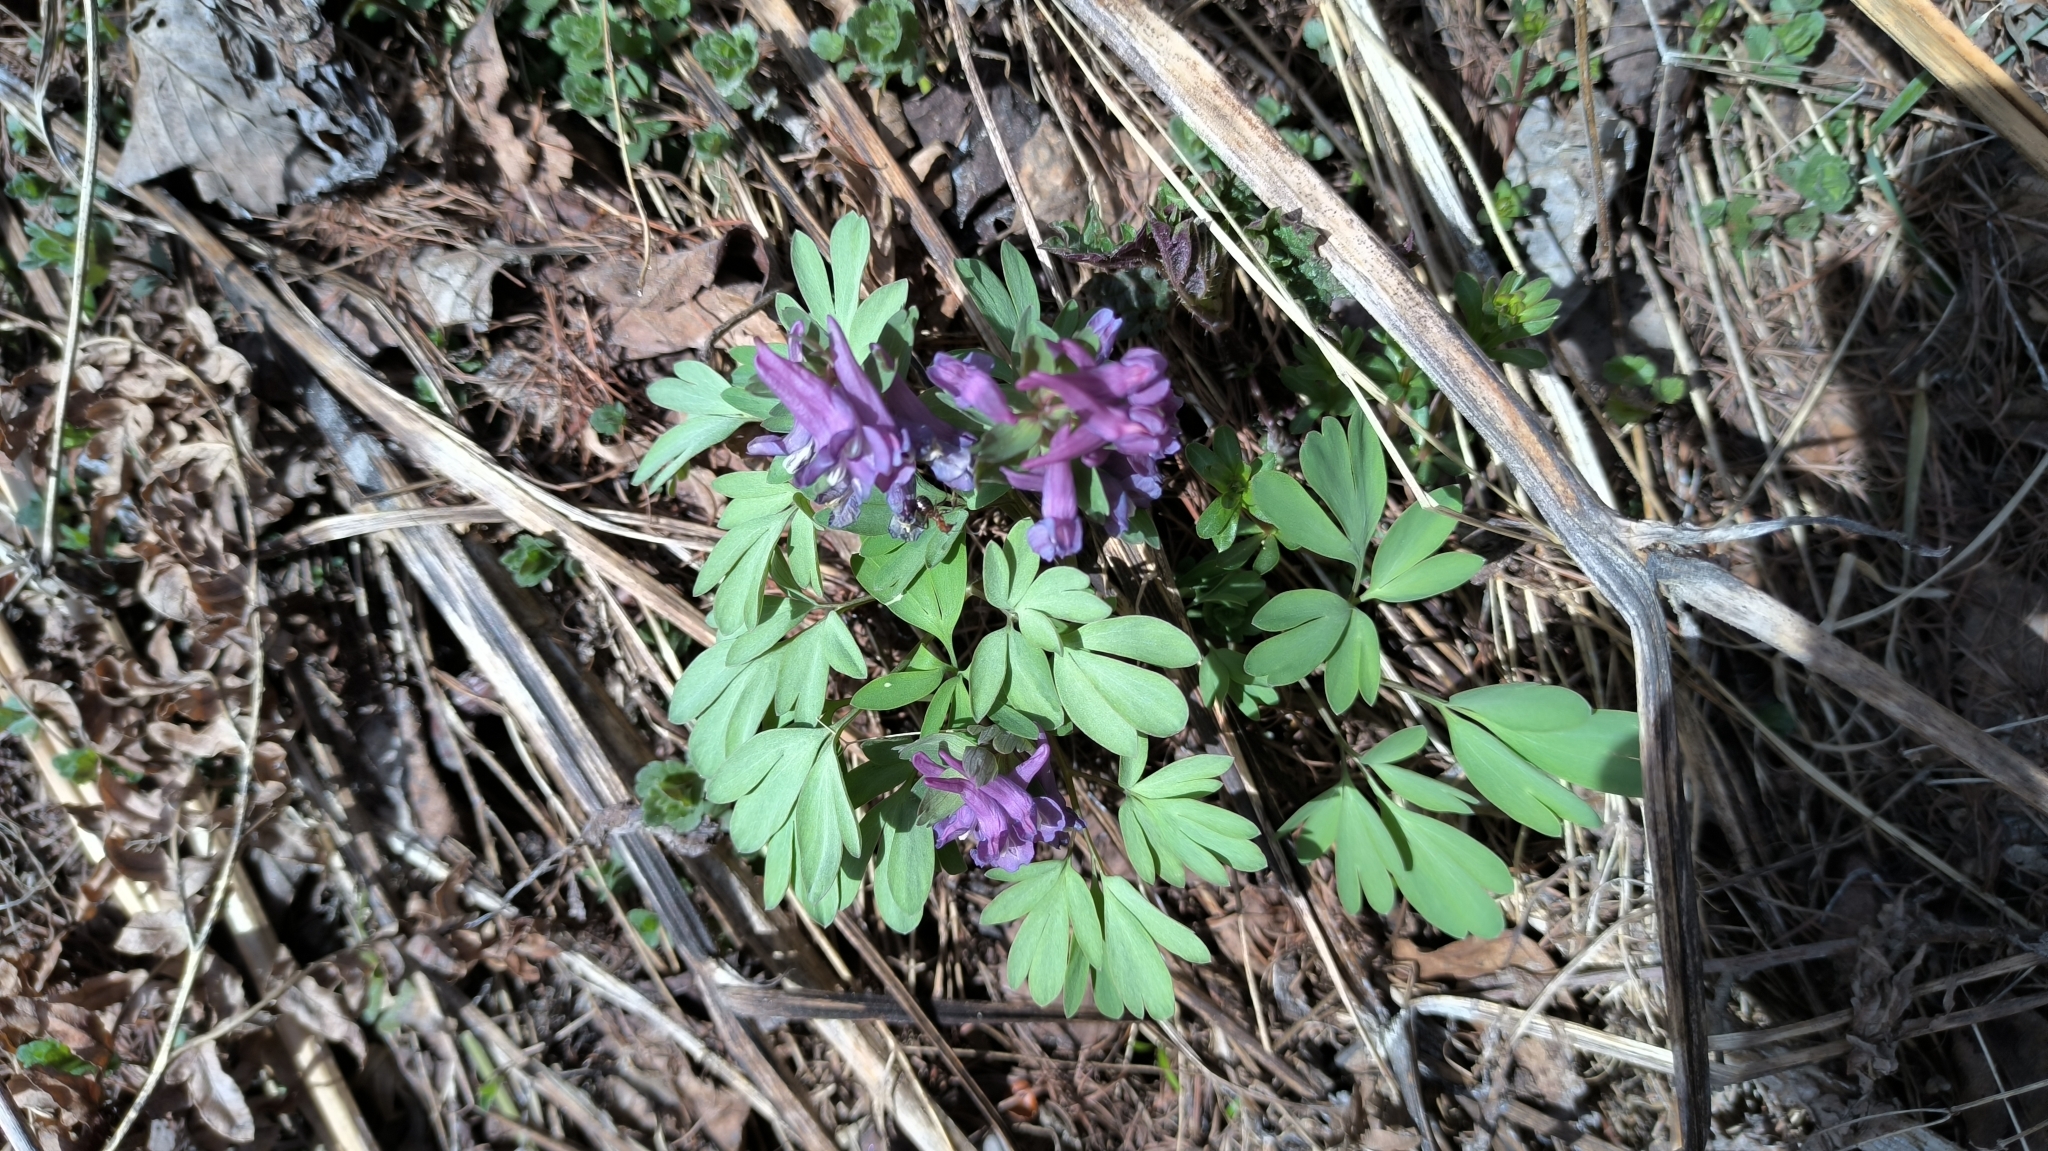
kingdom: Plantae
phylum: Tracheophyta
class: Magnoliopsida
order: Ranunculales
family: Papaveraceae
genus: Corydalis
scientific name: Corydalis solida
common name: Bird-in-a-bush
